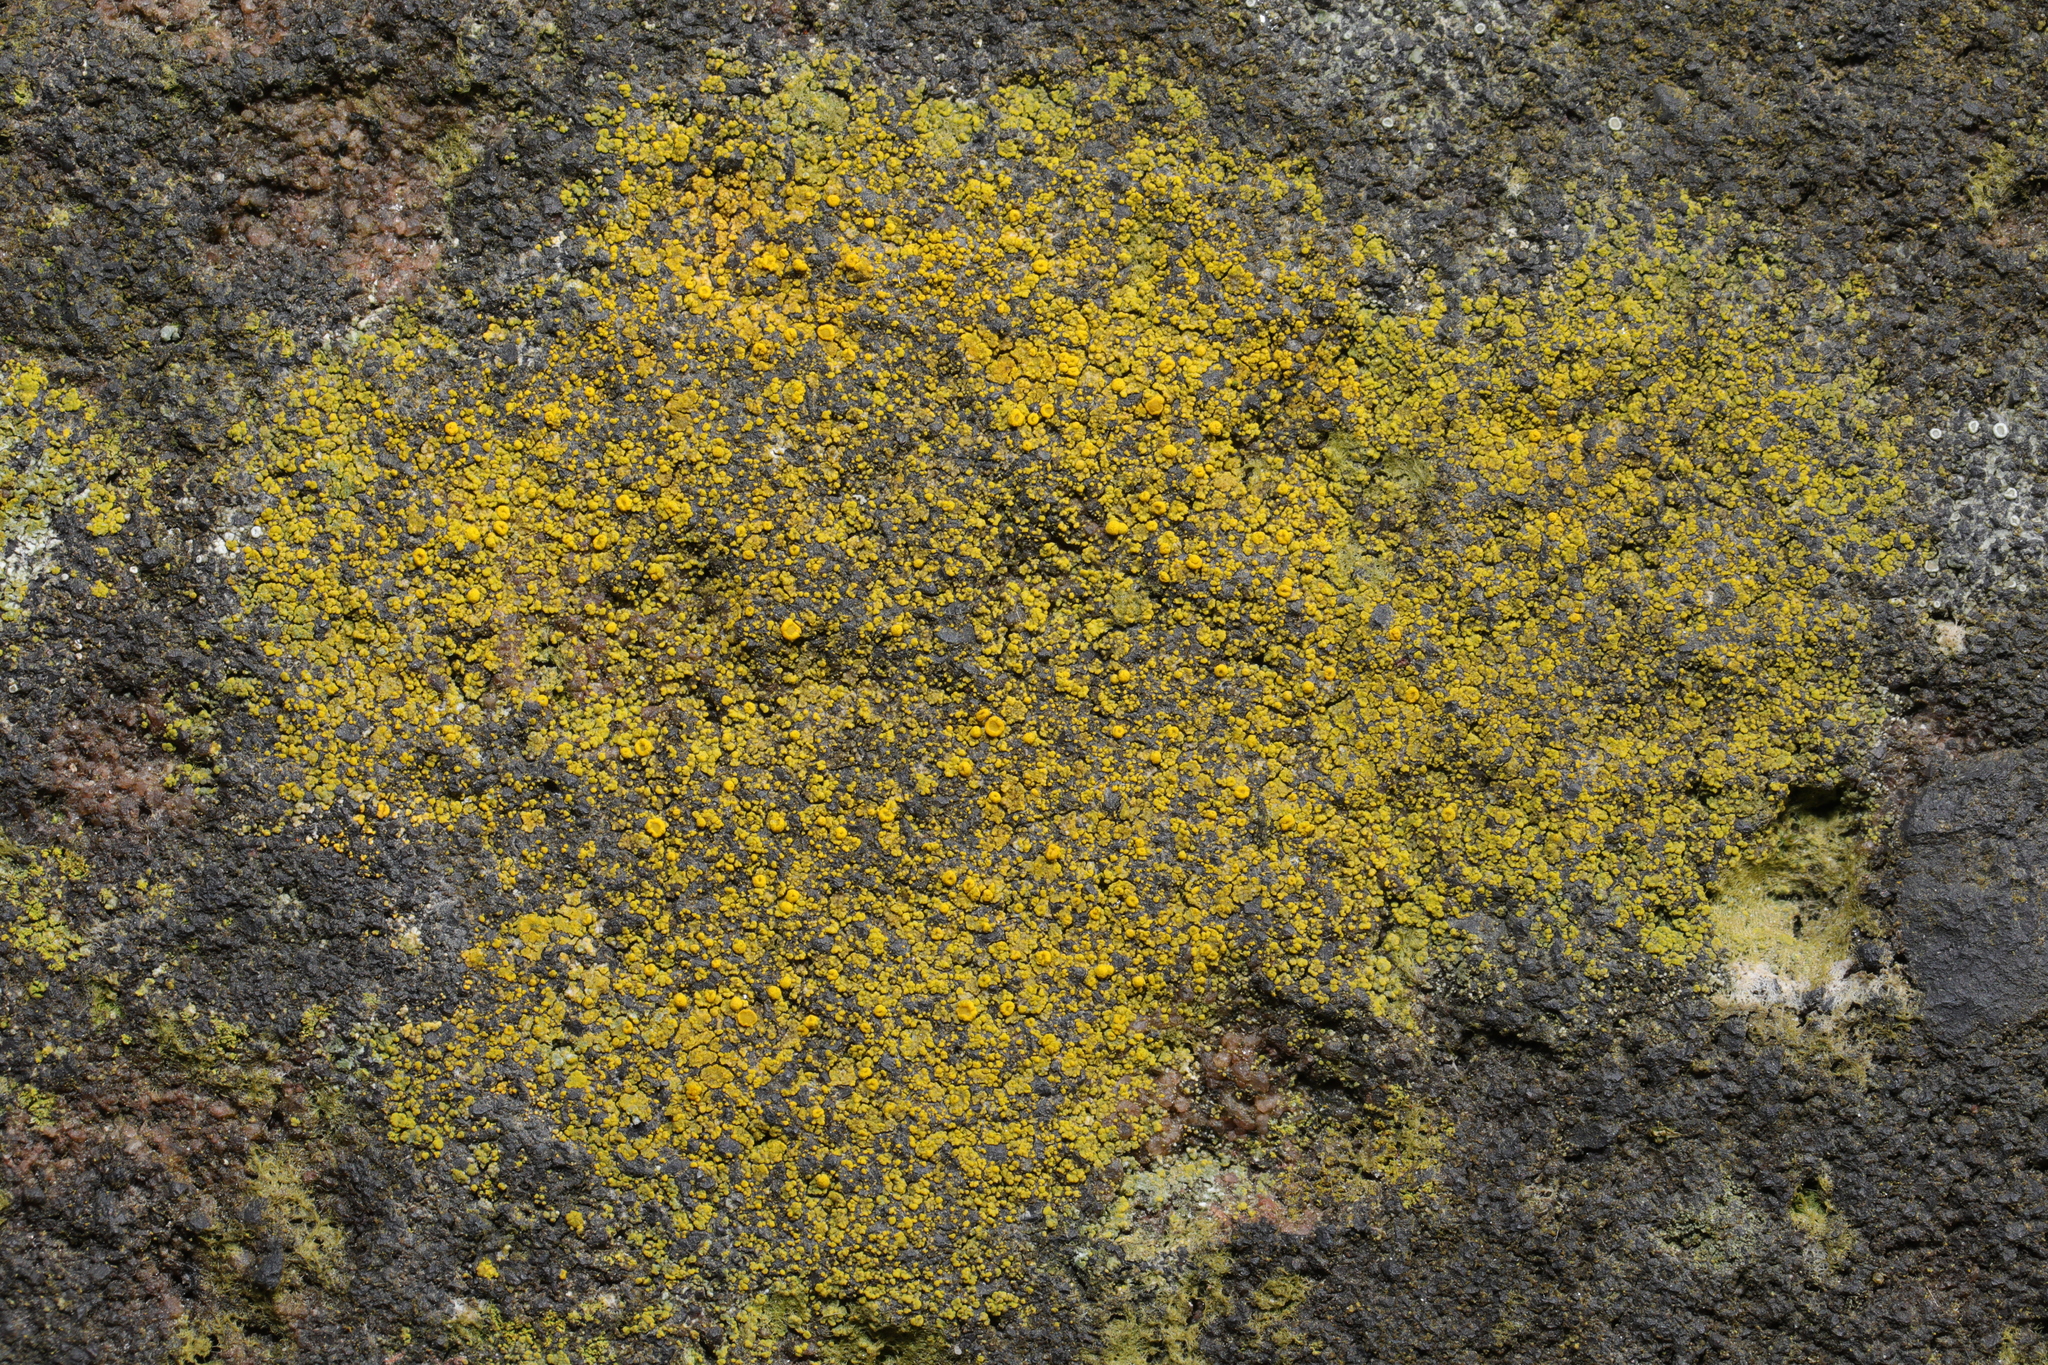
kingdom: Fungi
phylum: Ascomycota
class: Candelariomycetes
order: Candelariales
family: Candelariaceae
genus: Candelariella
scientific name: Candelariella vitellina
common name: Common goldspeck
